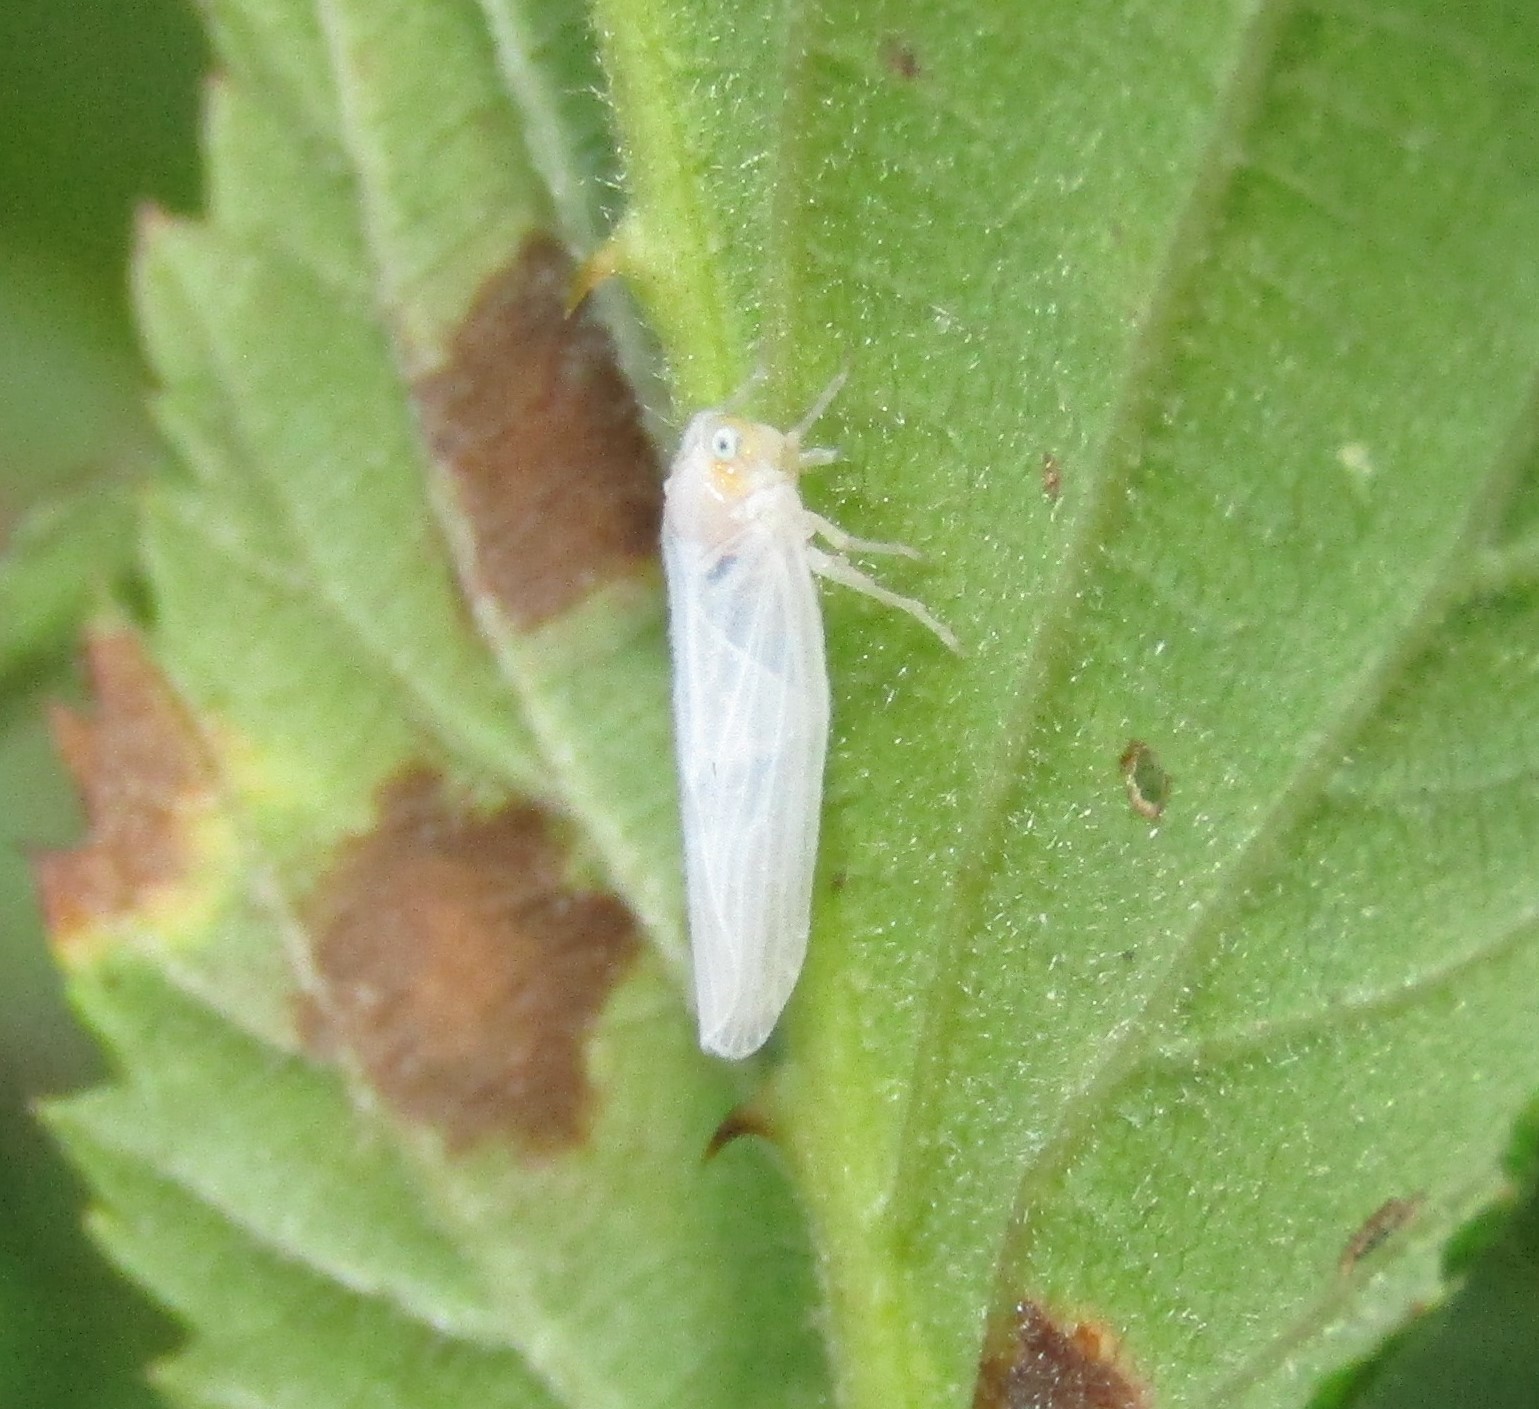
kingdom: Animalia
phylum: Arthropoda
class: Insecta
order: Hemiptera
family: Derbidae
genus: Neocenchrea
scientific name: Neocenchrea heidemanni
